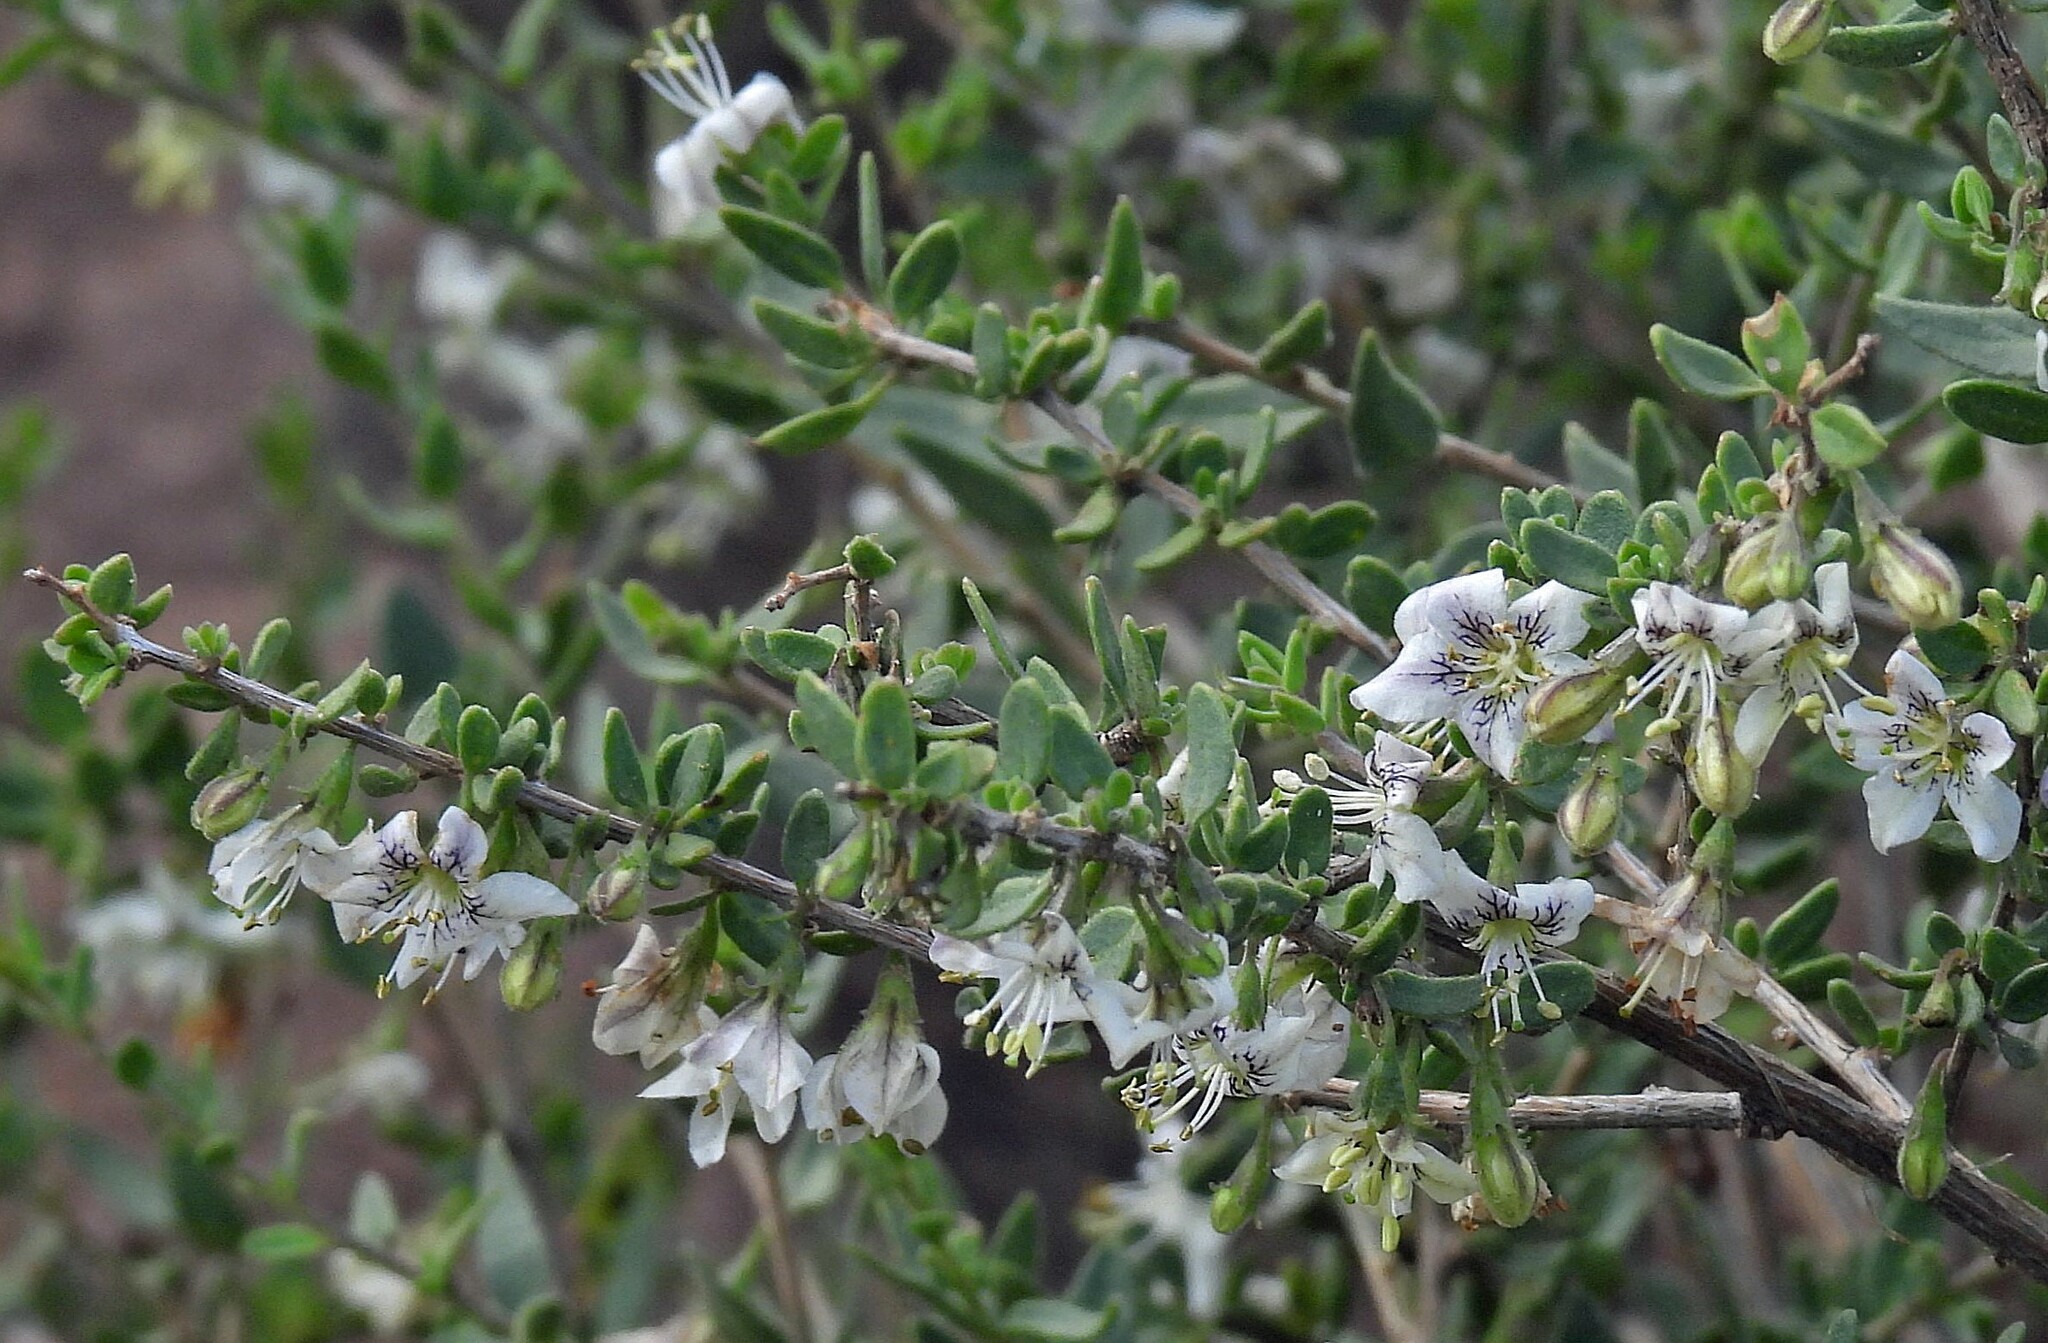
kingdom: Plantae
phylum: Tracheophyta
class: Magnoliopsida
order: Solanales
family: Solanaceae
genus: Lycium
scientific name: Lycium chilense
